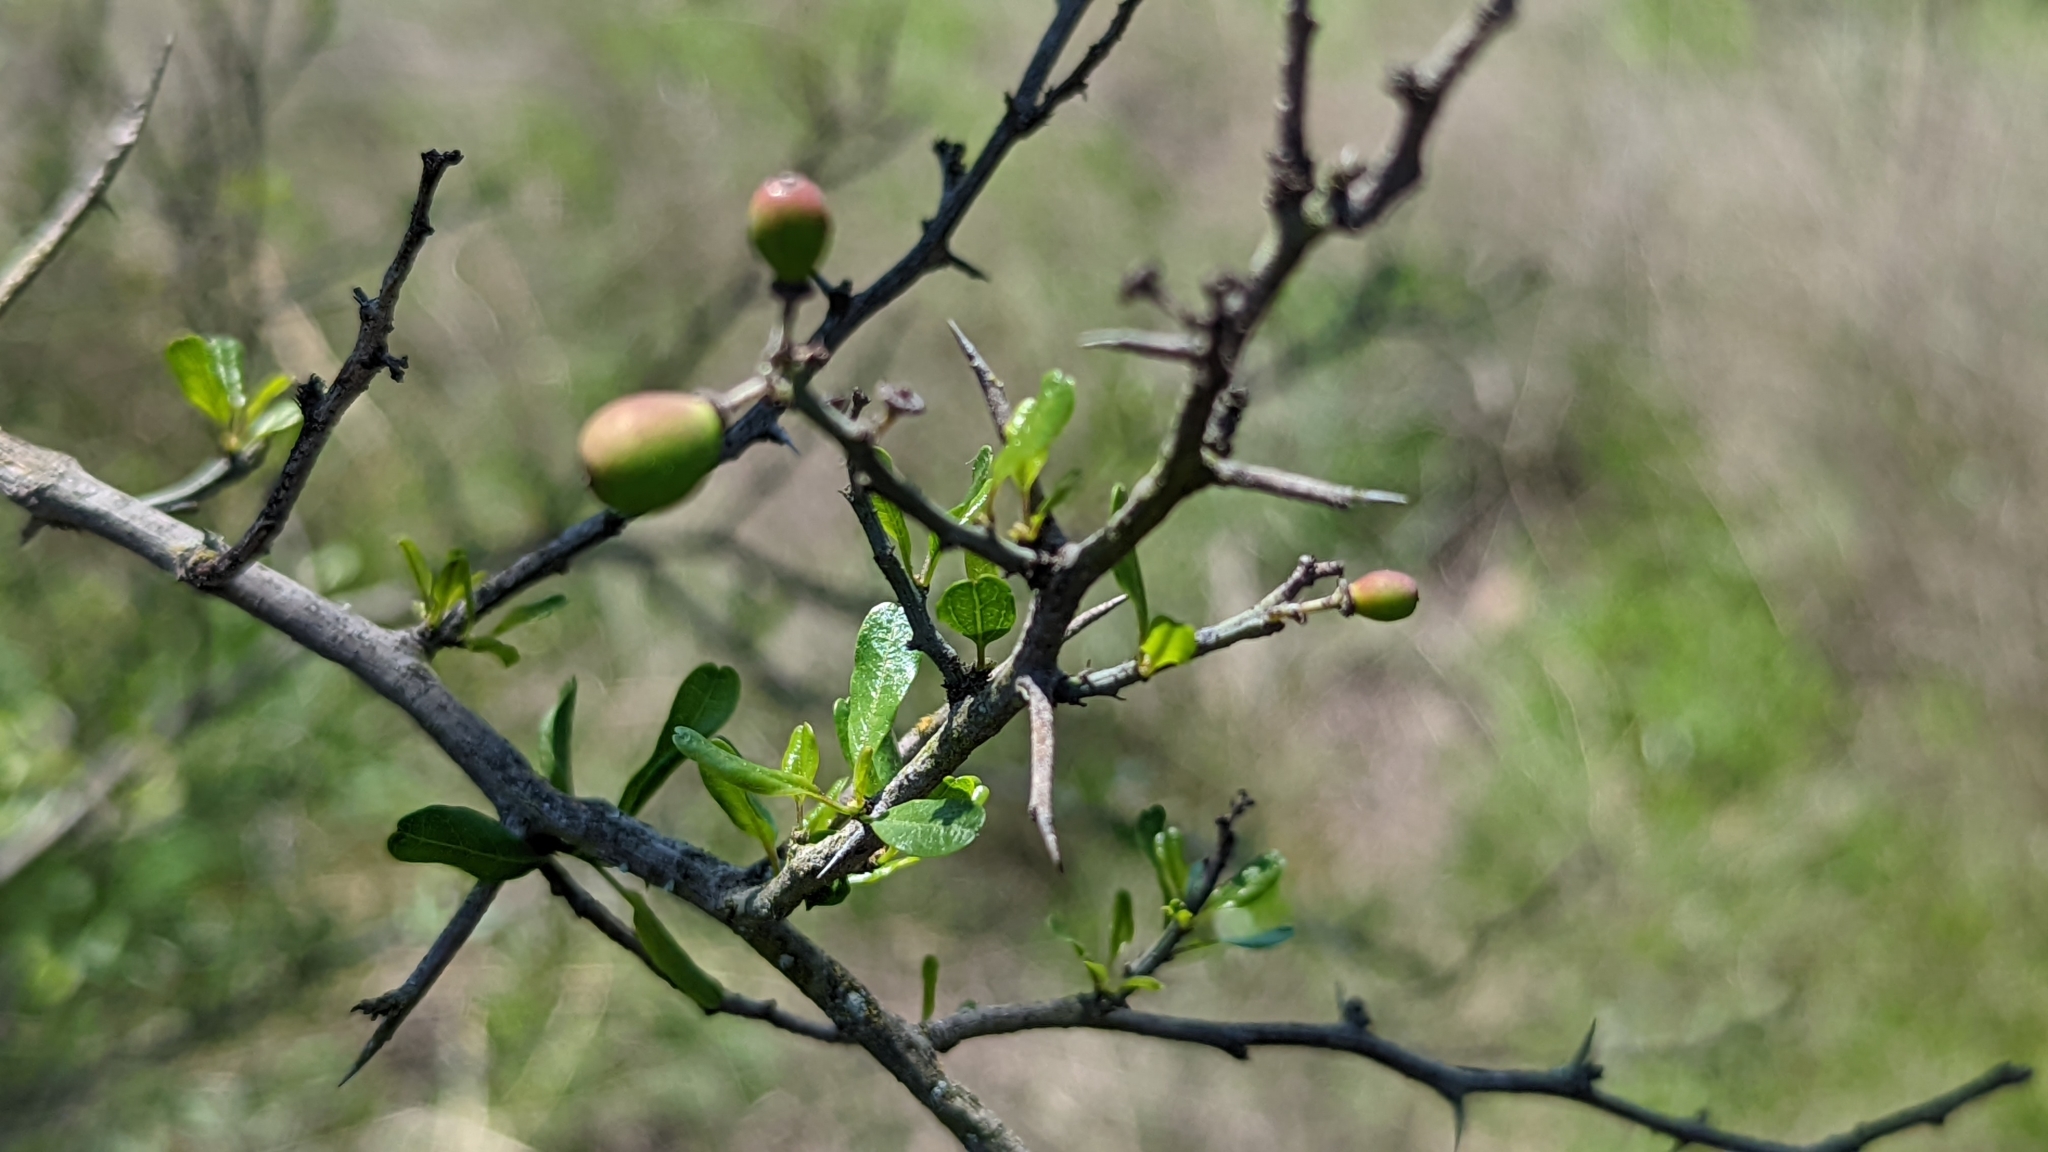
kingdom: Plantae
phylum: Tracheophyta
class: Magnoliopsida
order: Rosales
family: Rhamnaceae
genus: Sarcomphalus
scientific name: Sarcomphalus obtusifolius
